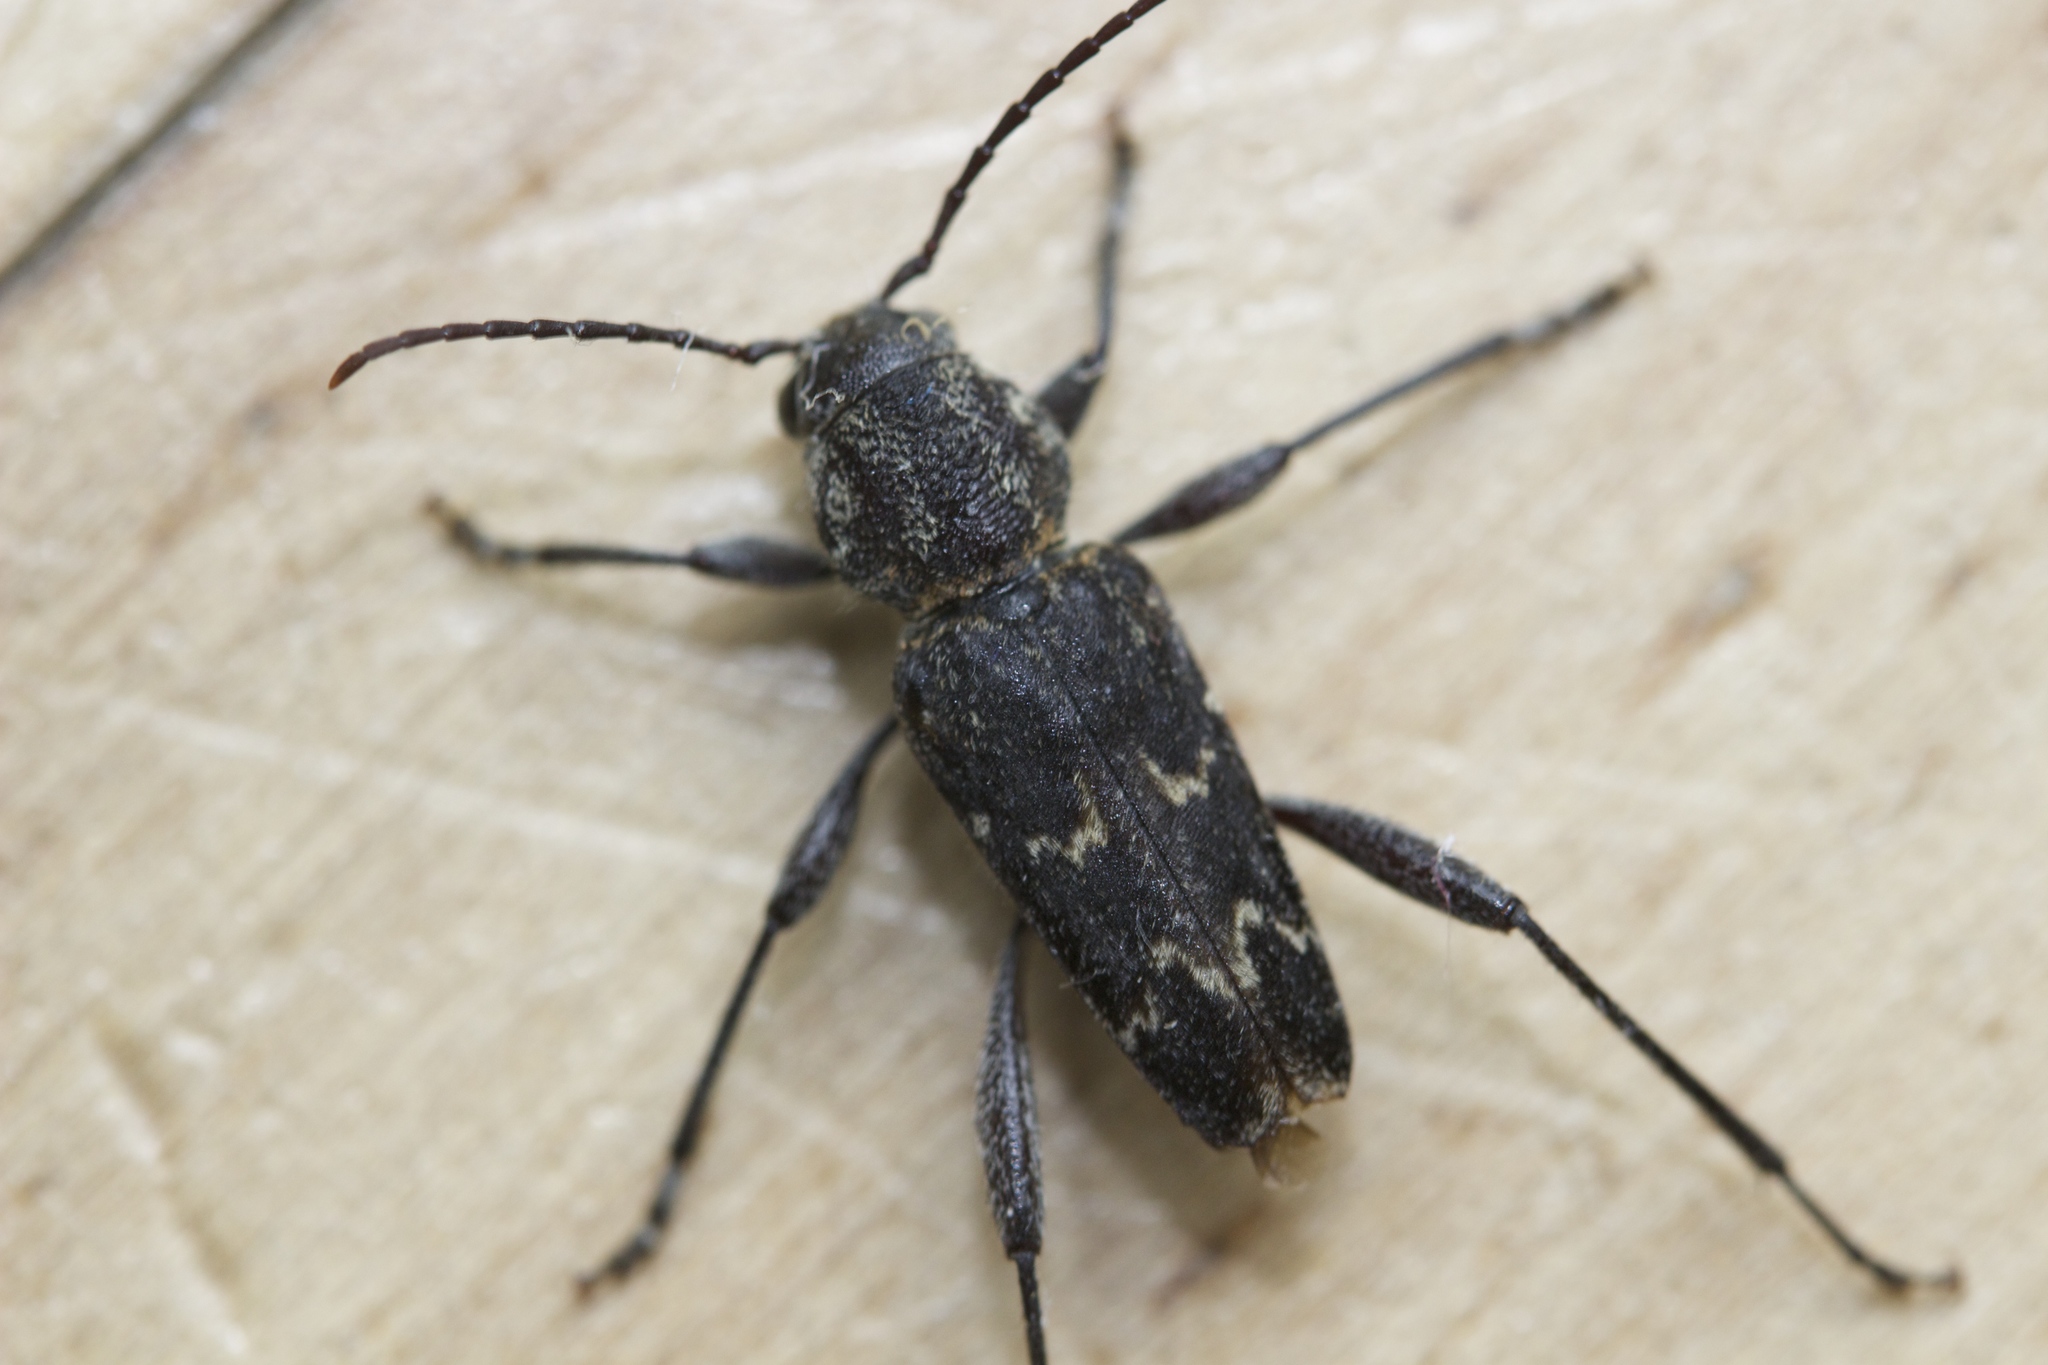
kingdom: Animalia
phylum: Arthropoda
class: Insecta
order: Coleoptera
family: Cerambycidae
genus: Xylotrechus
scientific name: Xylotrechus nauticus
